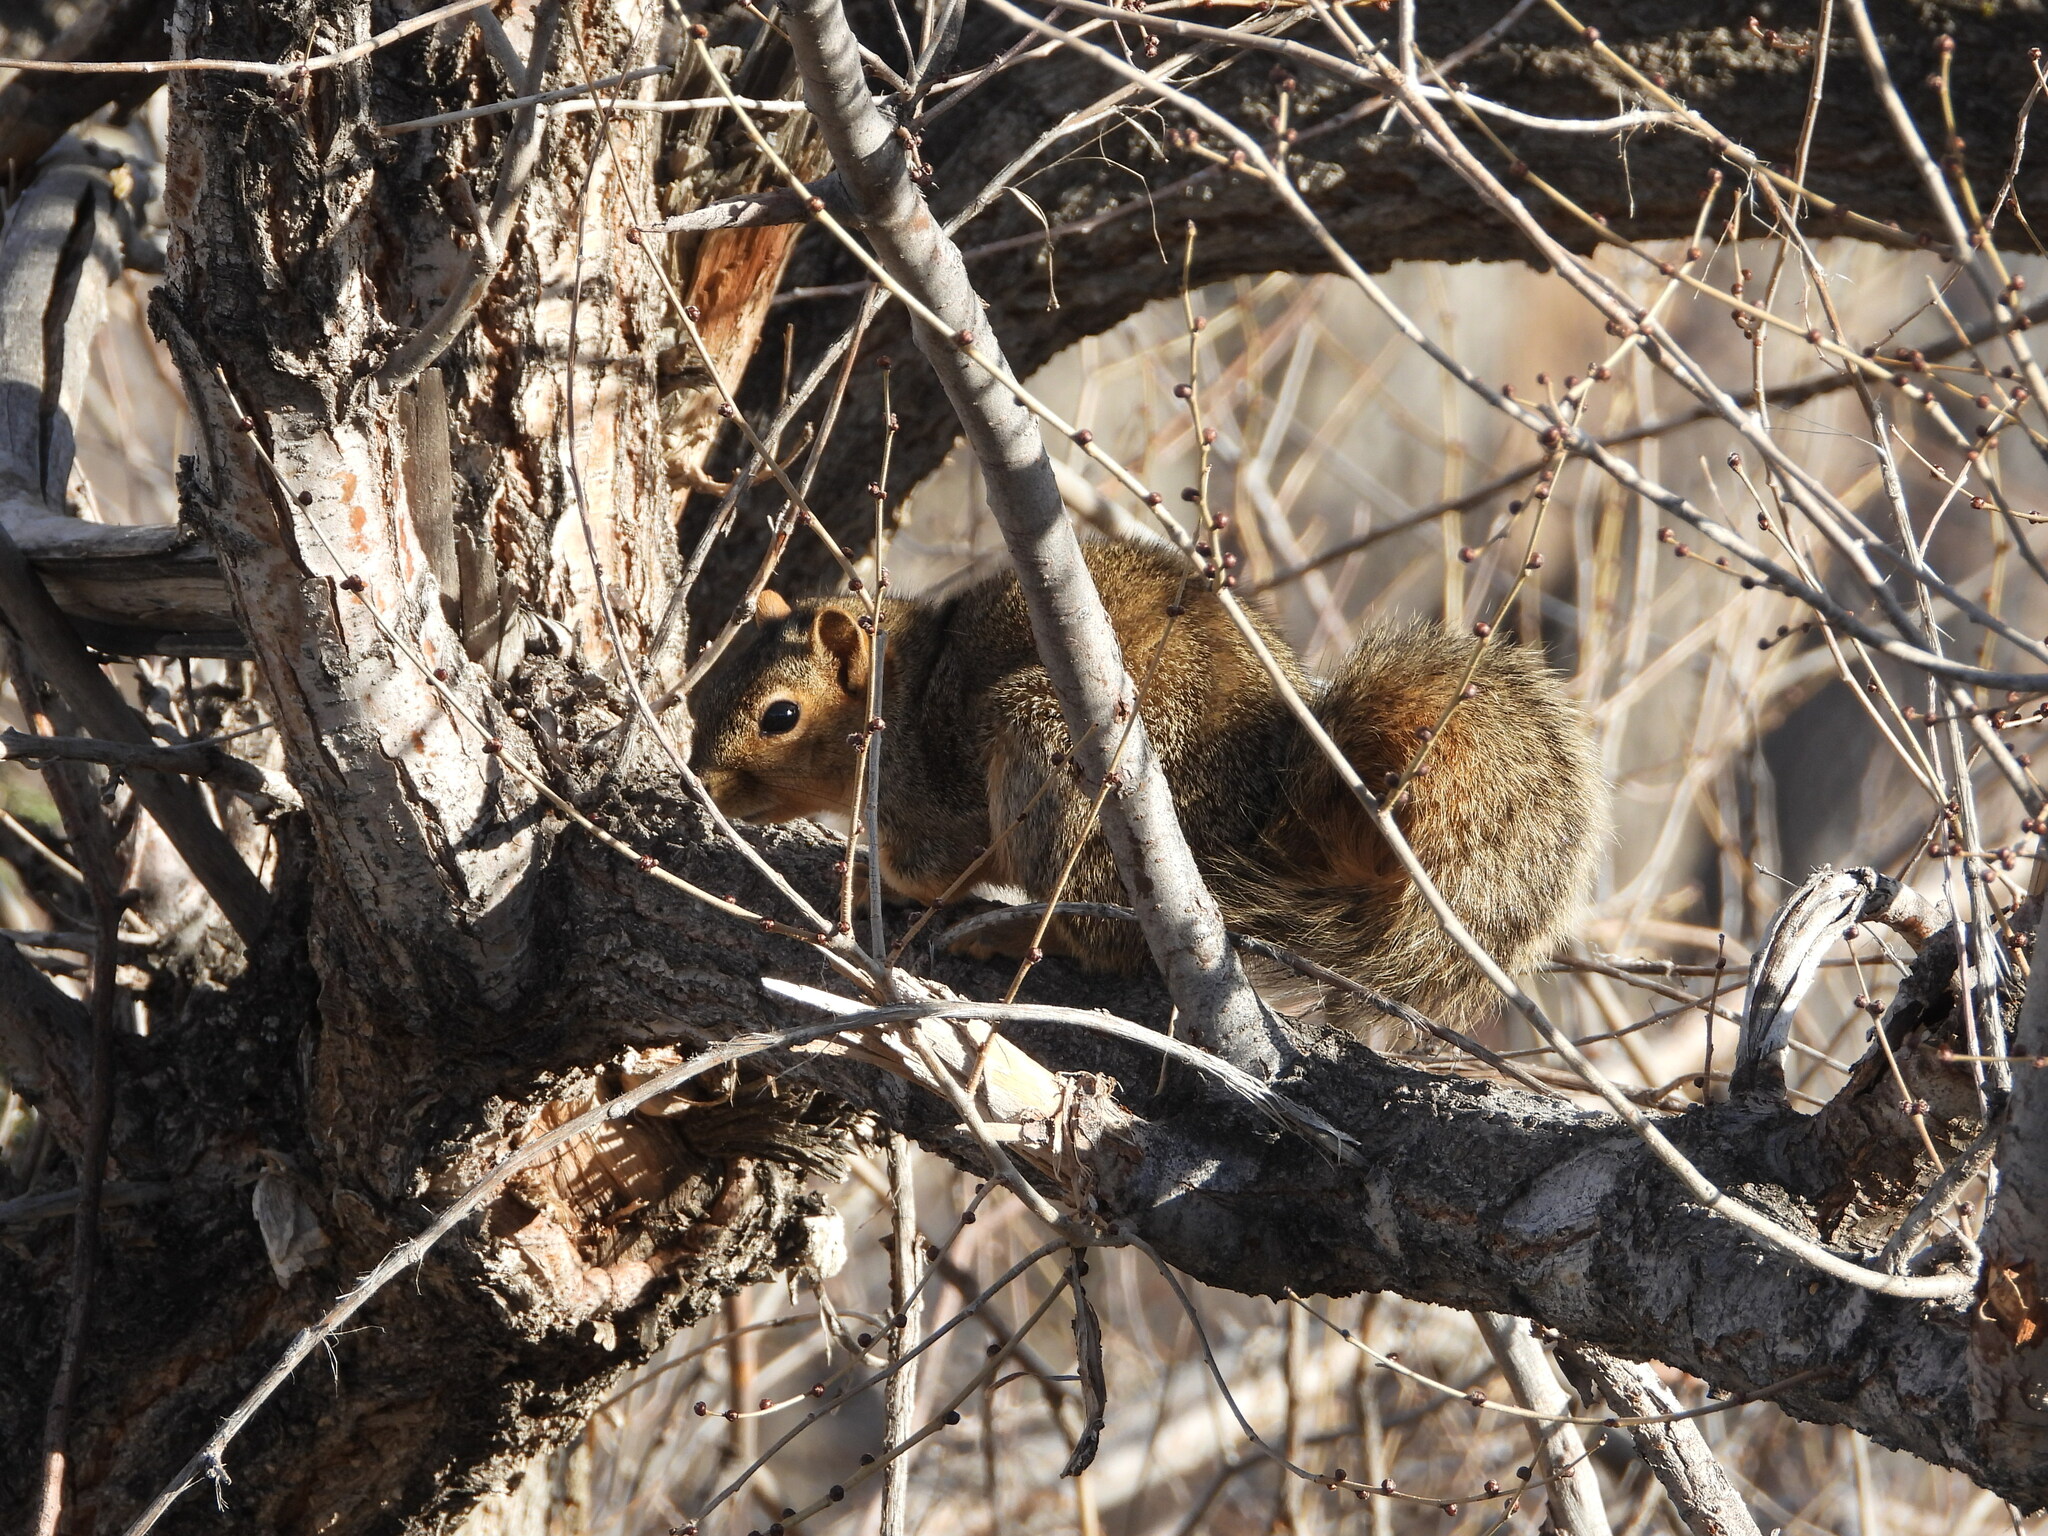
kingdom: Animalia
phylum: Chordata
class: Mammalia
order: Rodentia
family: Sciuridae
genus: Sciurus
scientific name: Sciurus niger
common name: Fox squirrel
